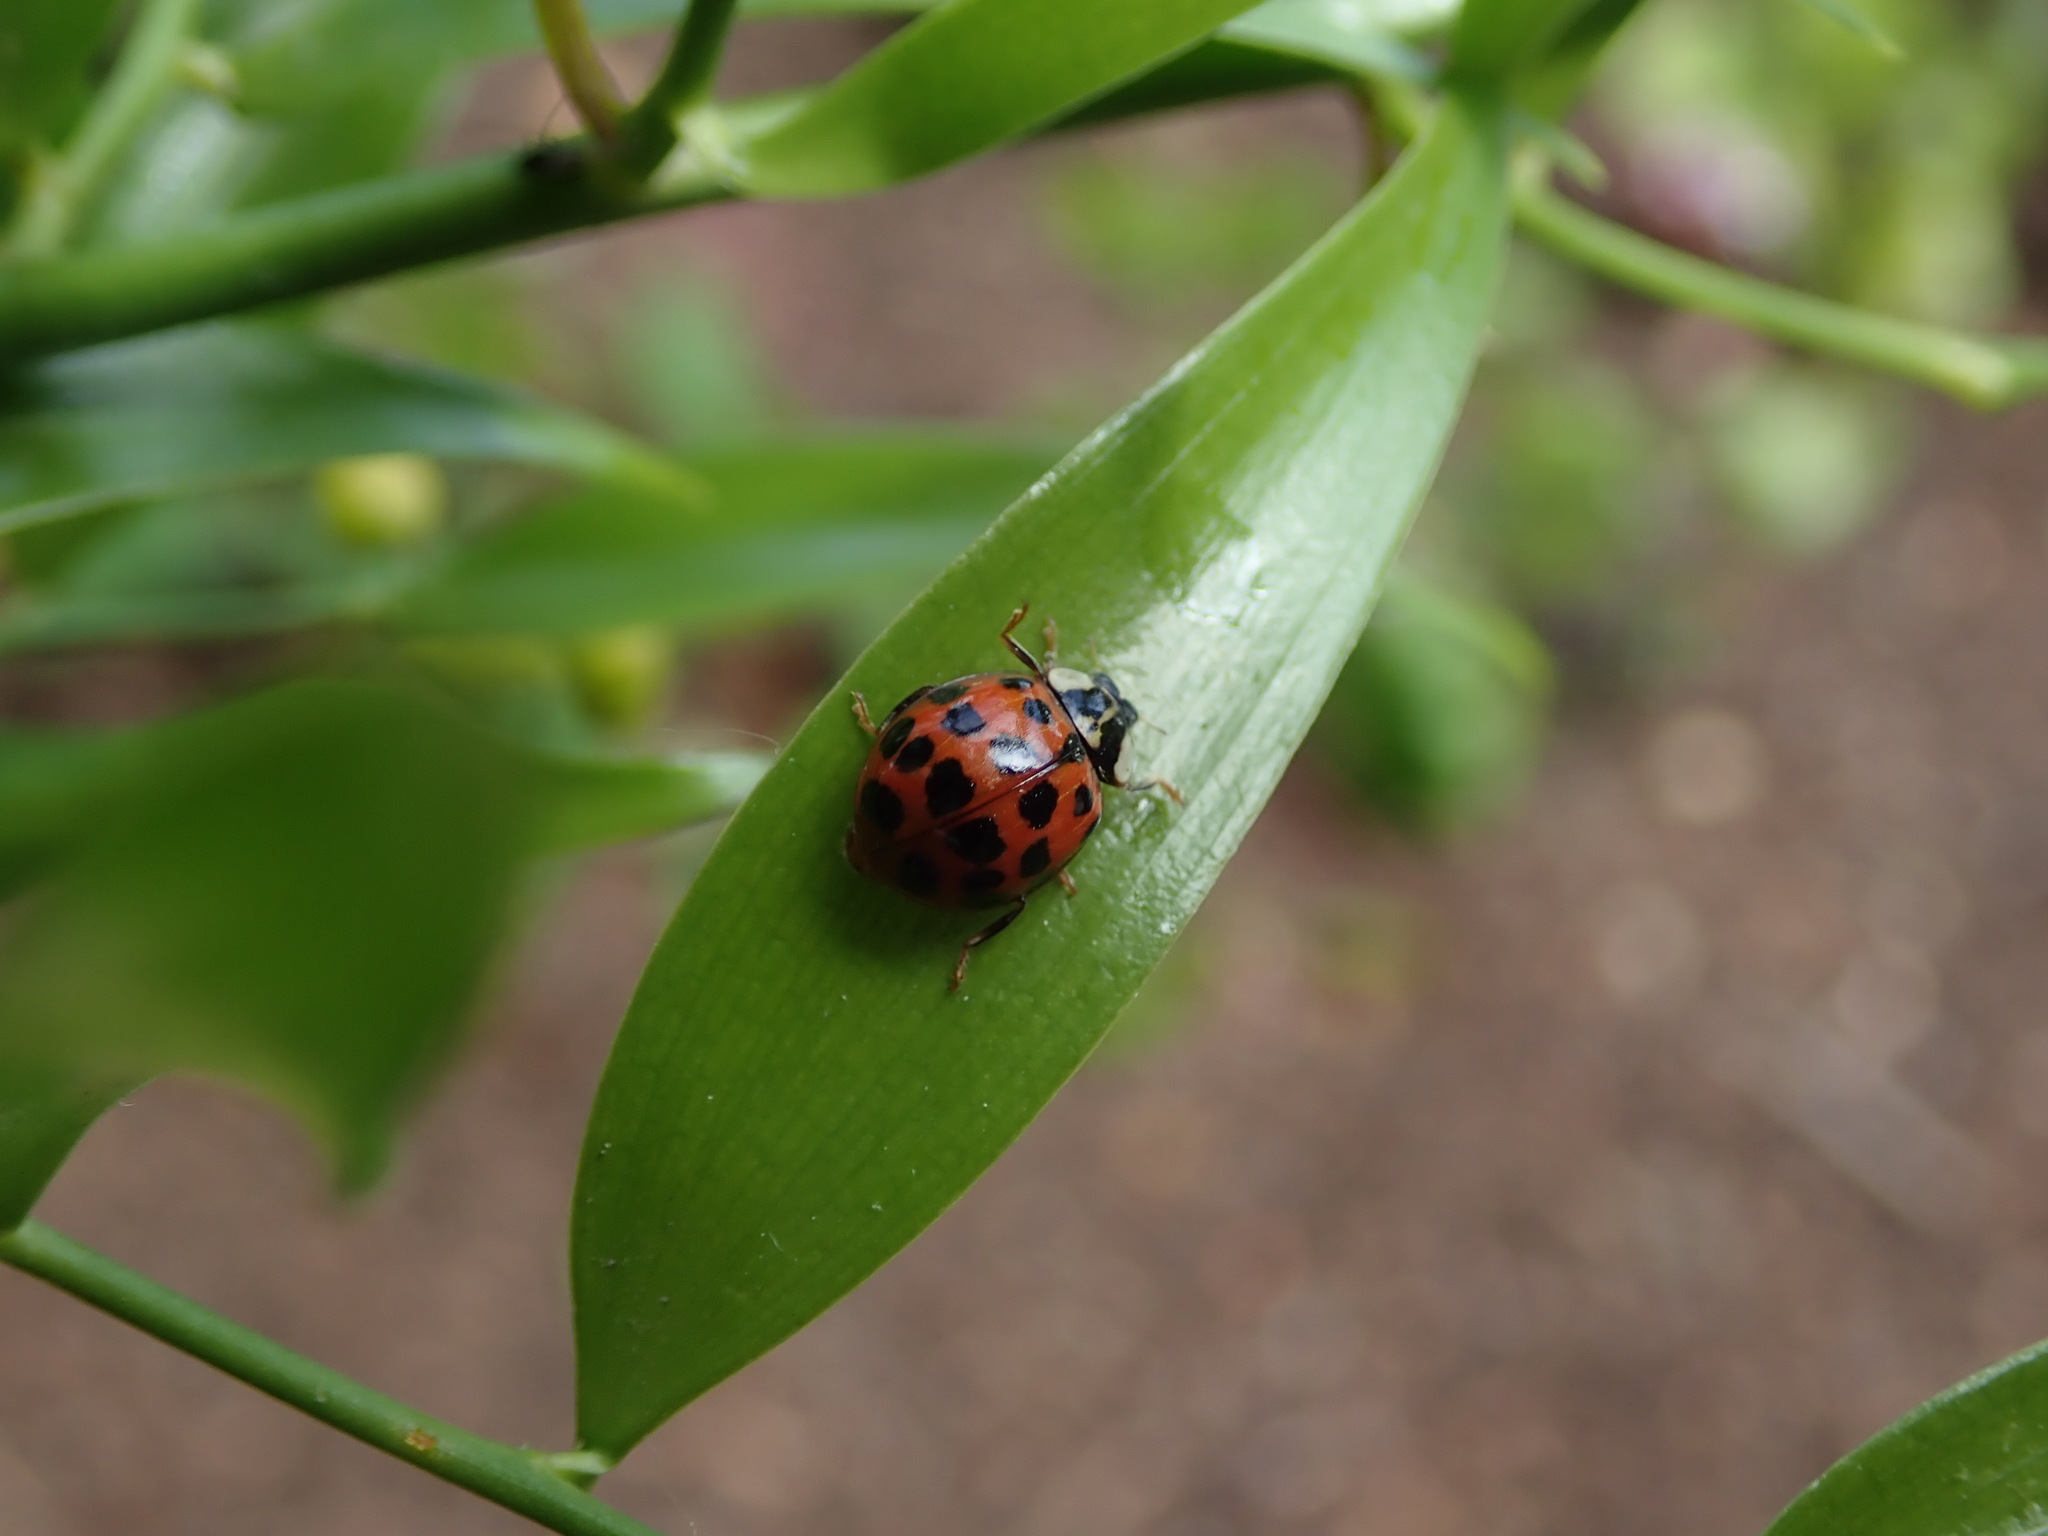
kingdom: Animalia
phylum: Arthropoda
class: Insecta
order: Coleoptera
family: Coccinellidae
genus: Harmonia
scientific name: Harmonia axyridis
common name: Harlequin ladybird
